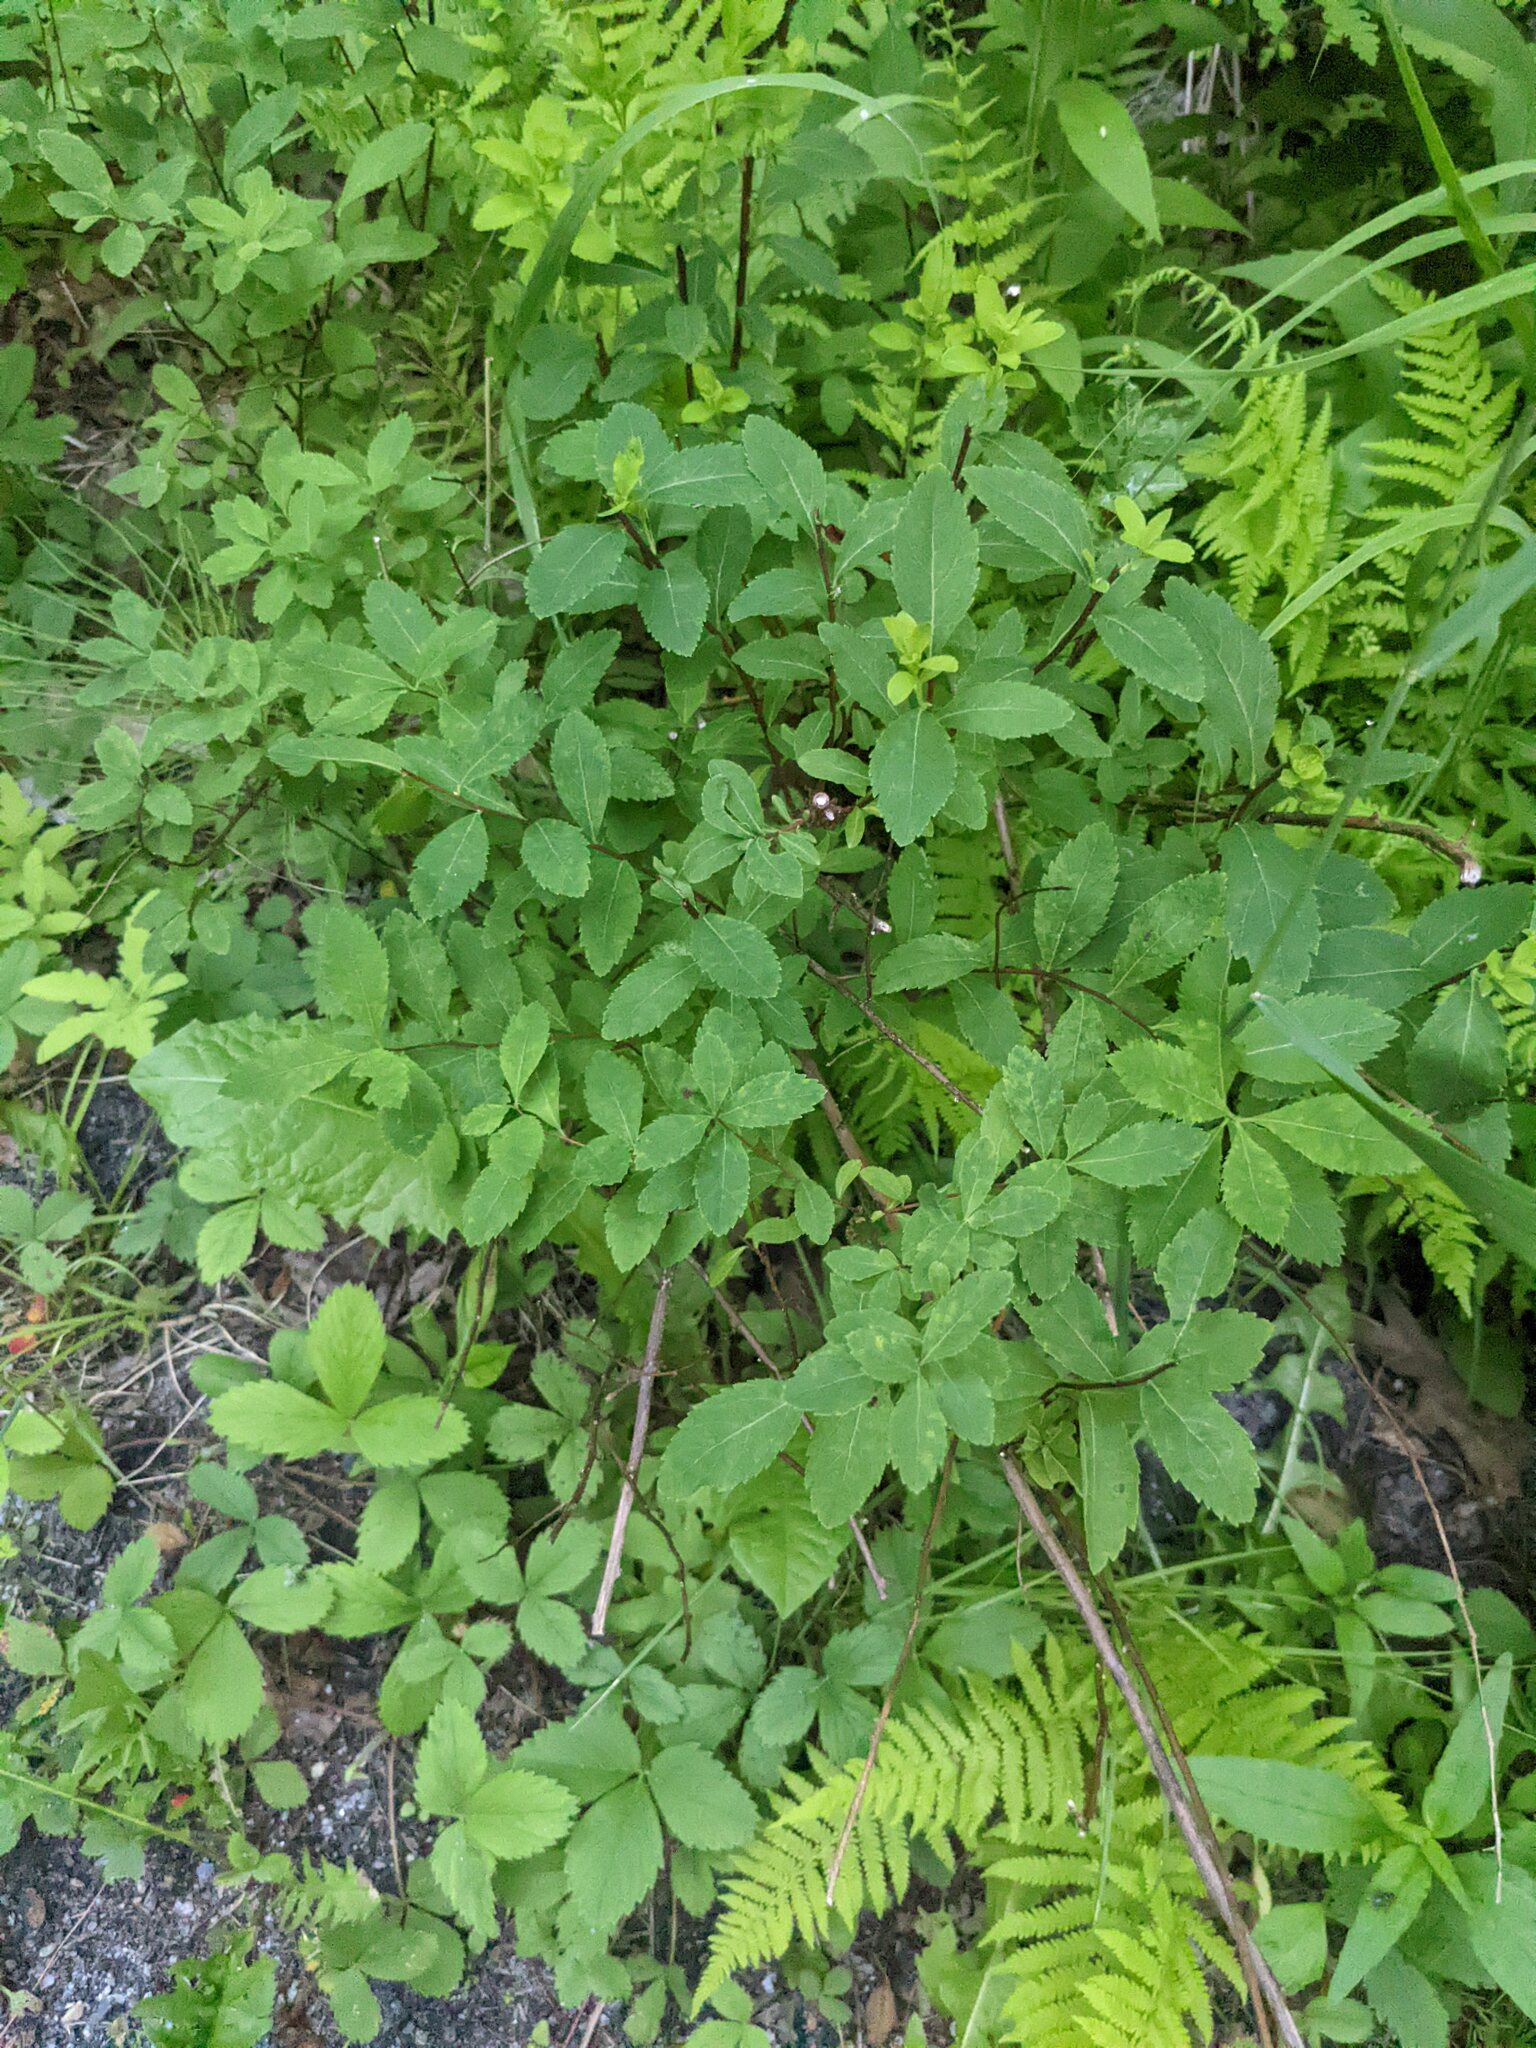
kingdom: Plantae
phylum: Tracheophyta
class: Magnoliopsida
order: Rosales
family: Rosaceae
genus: Spiraea
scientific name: Spiraea alba
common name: Pale bridewort
